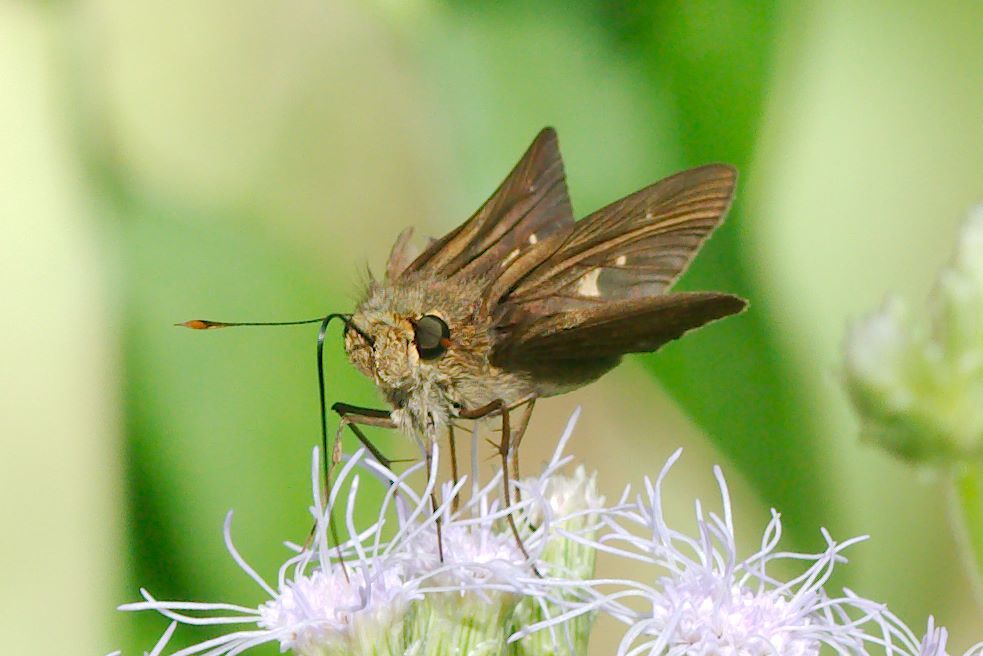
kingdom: Animalia
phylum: Arthropoda
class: Insecta
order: Lepidoptera
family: Hesperiidae
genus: Panoquina
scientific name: Panoquina ocola
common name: Ocola skipper
